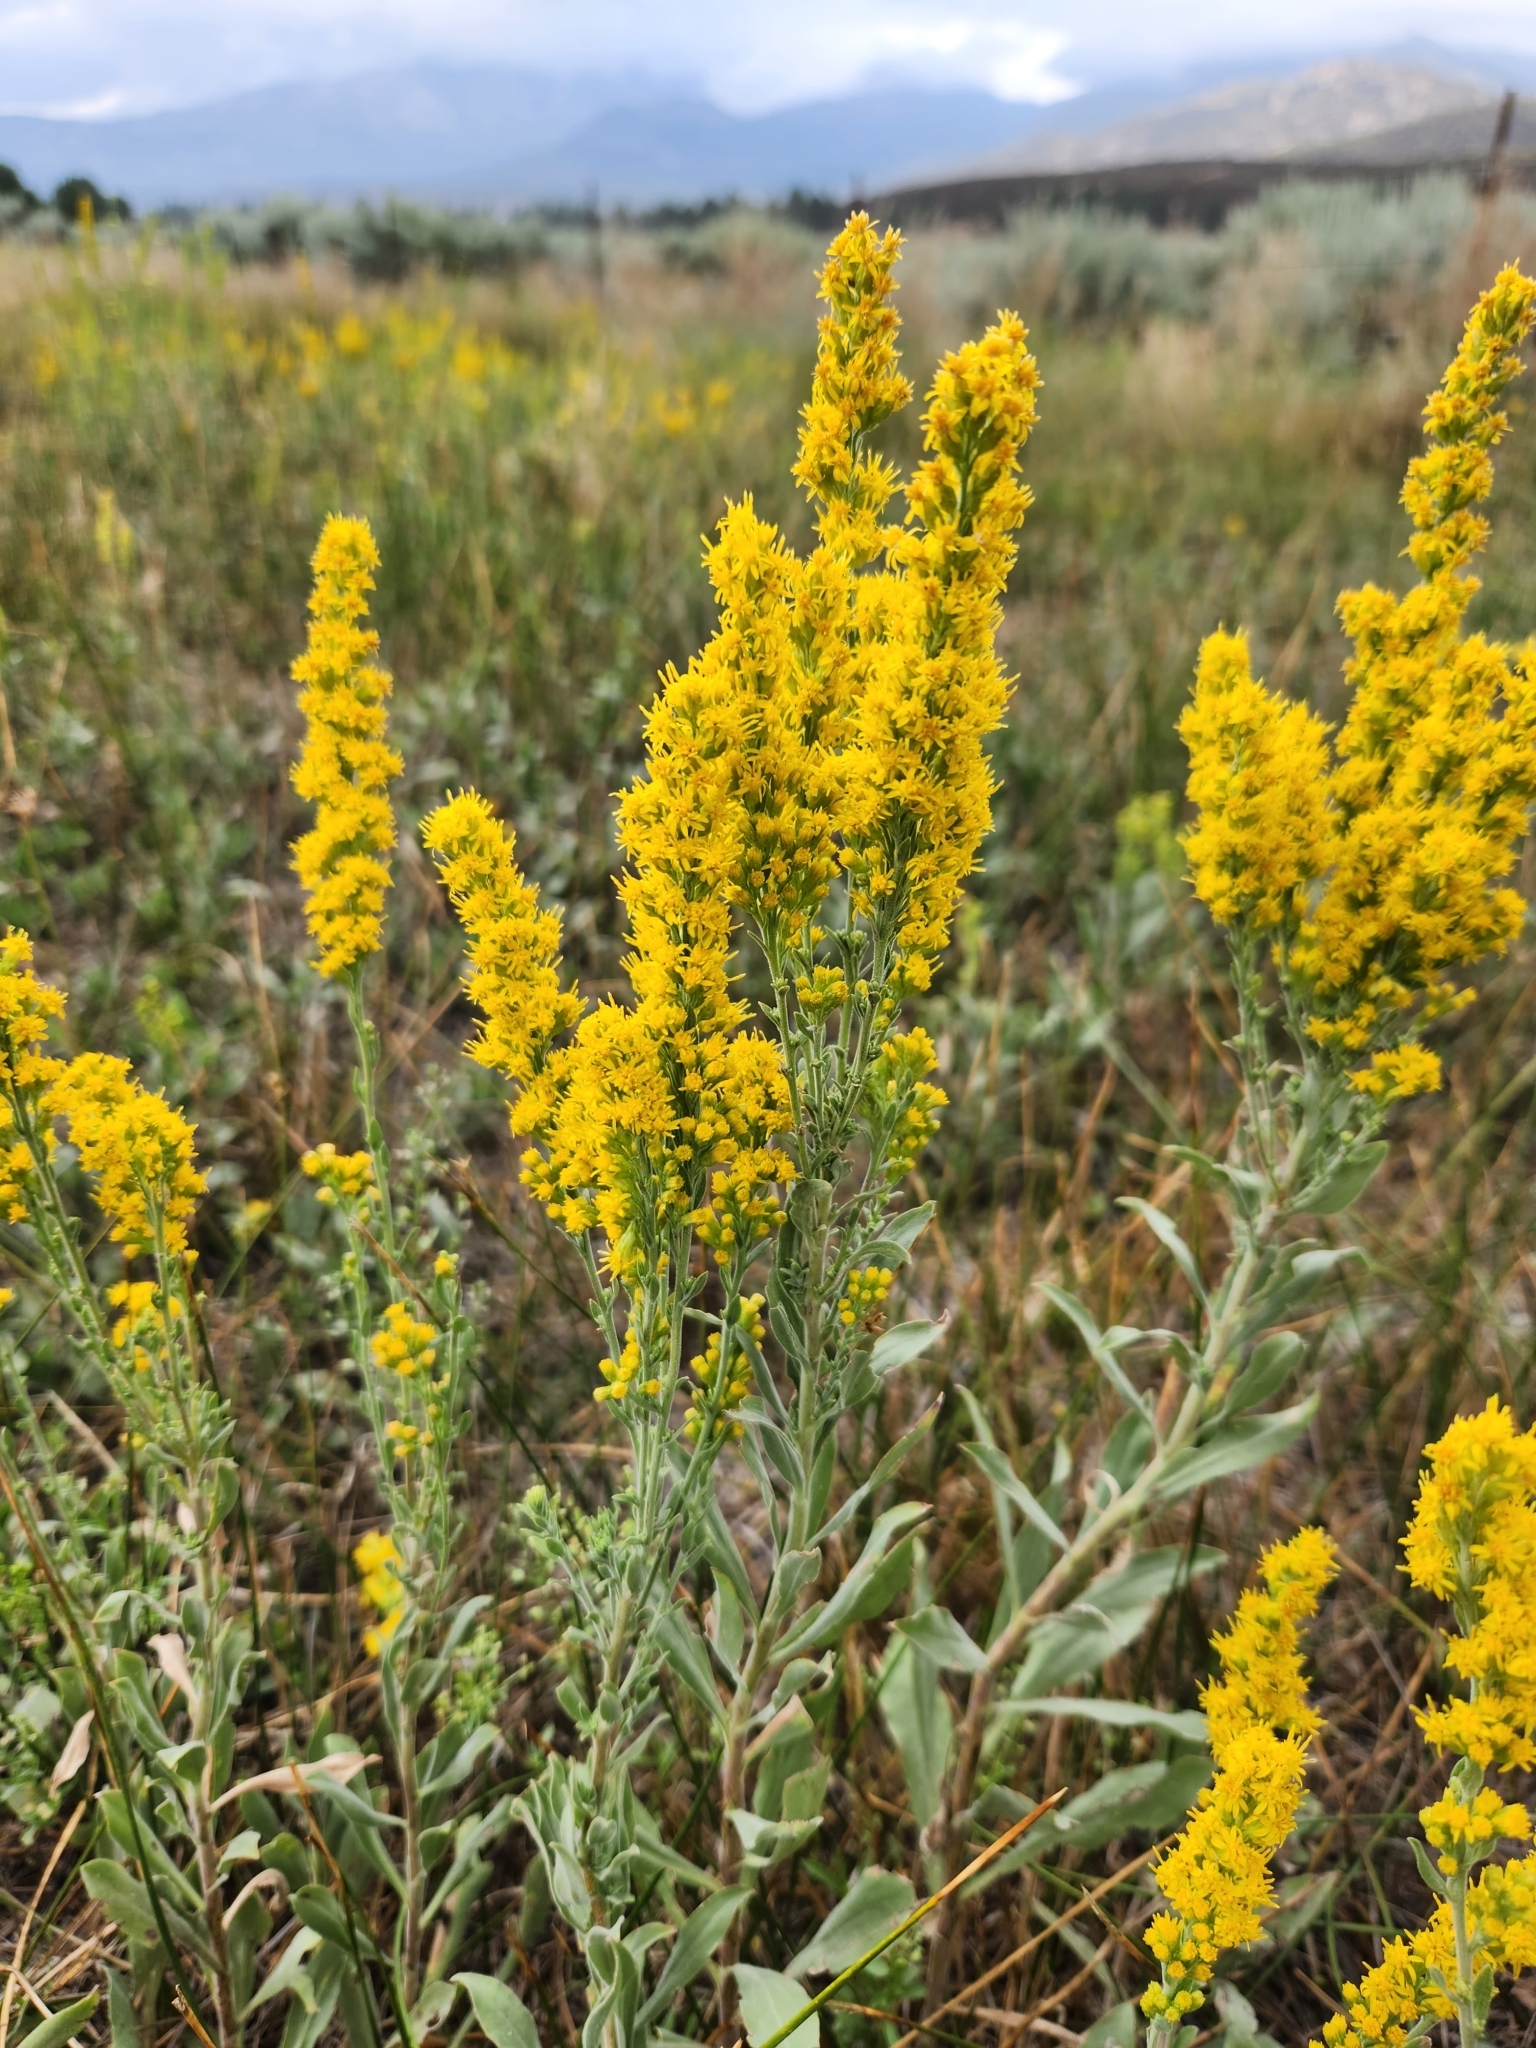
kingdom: Plantae
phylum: Tracheophyta
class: Magnoliopsida
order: Asterales
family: Asteraceae
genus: Solidago
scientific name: Solidago velutina
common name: Three-nerve goldenrod
